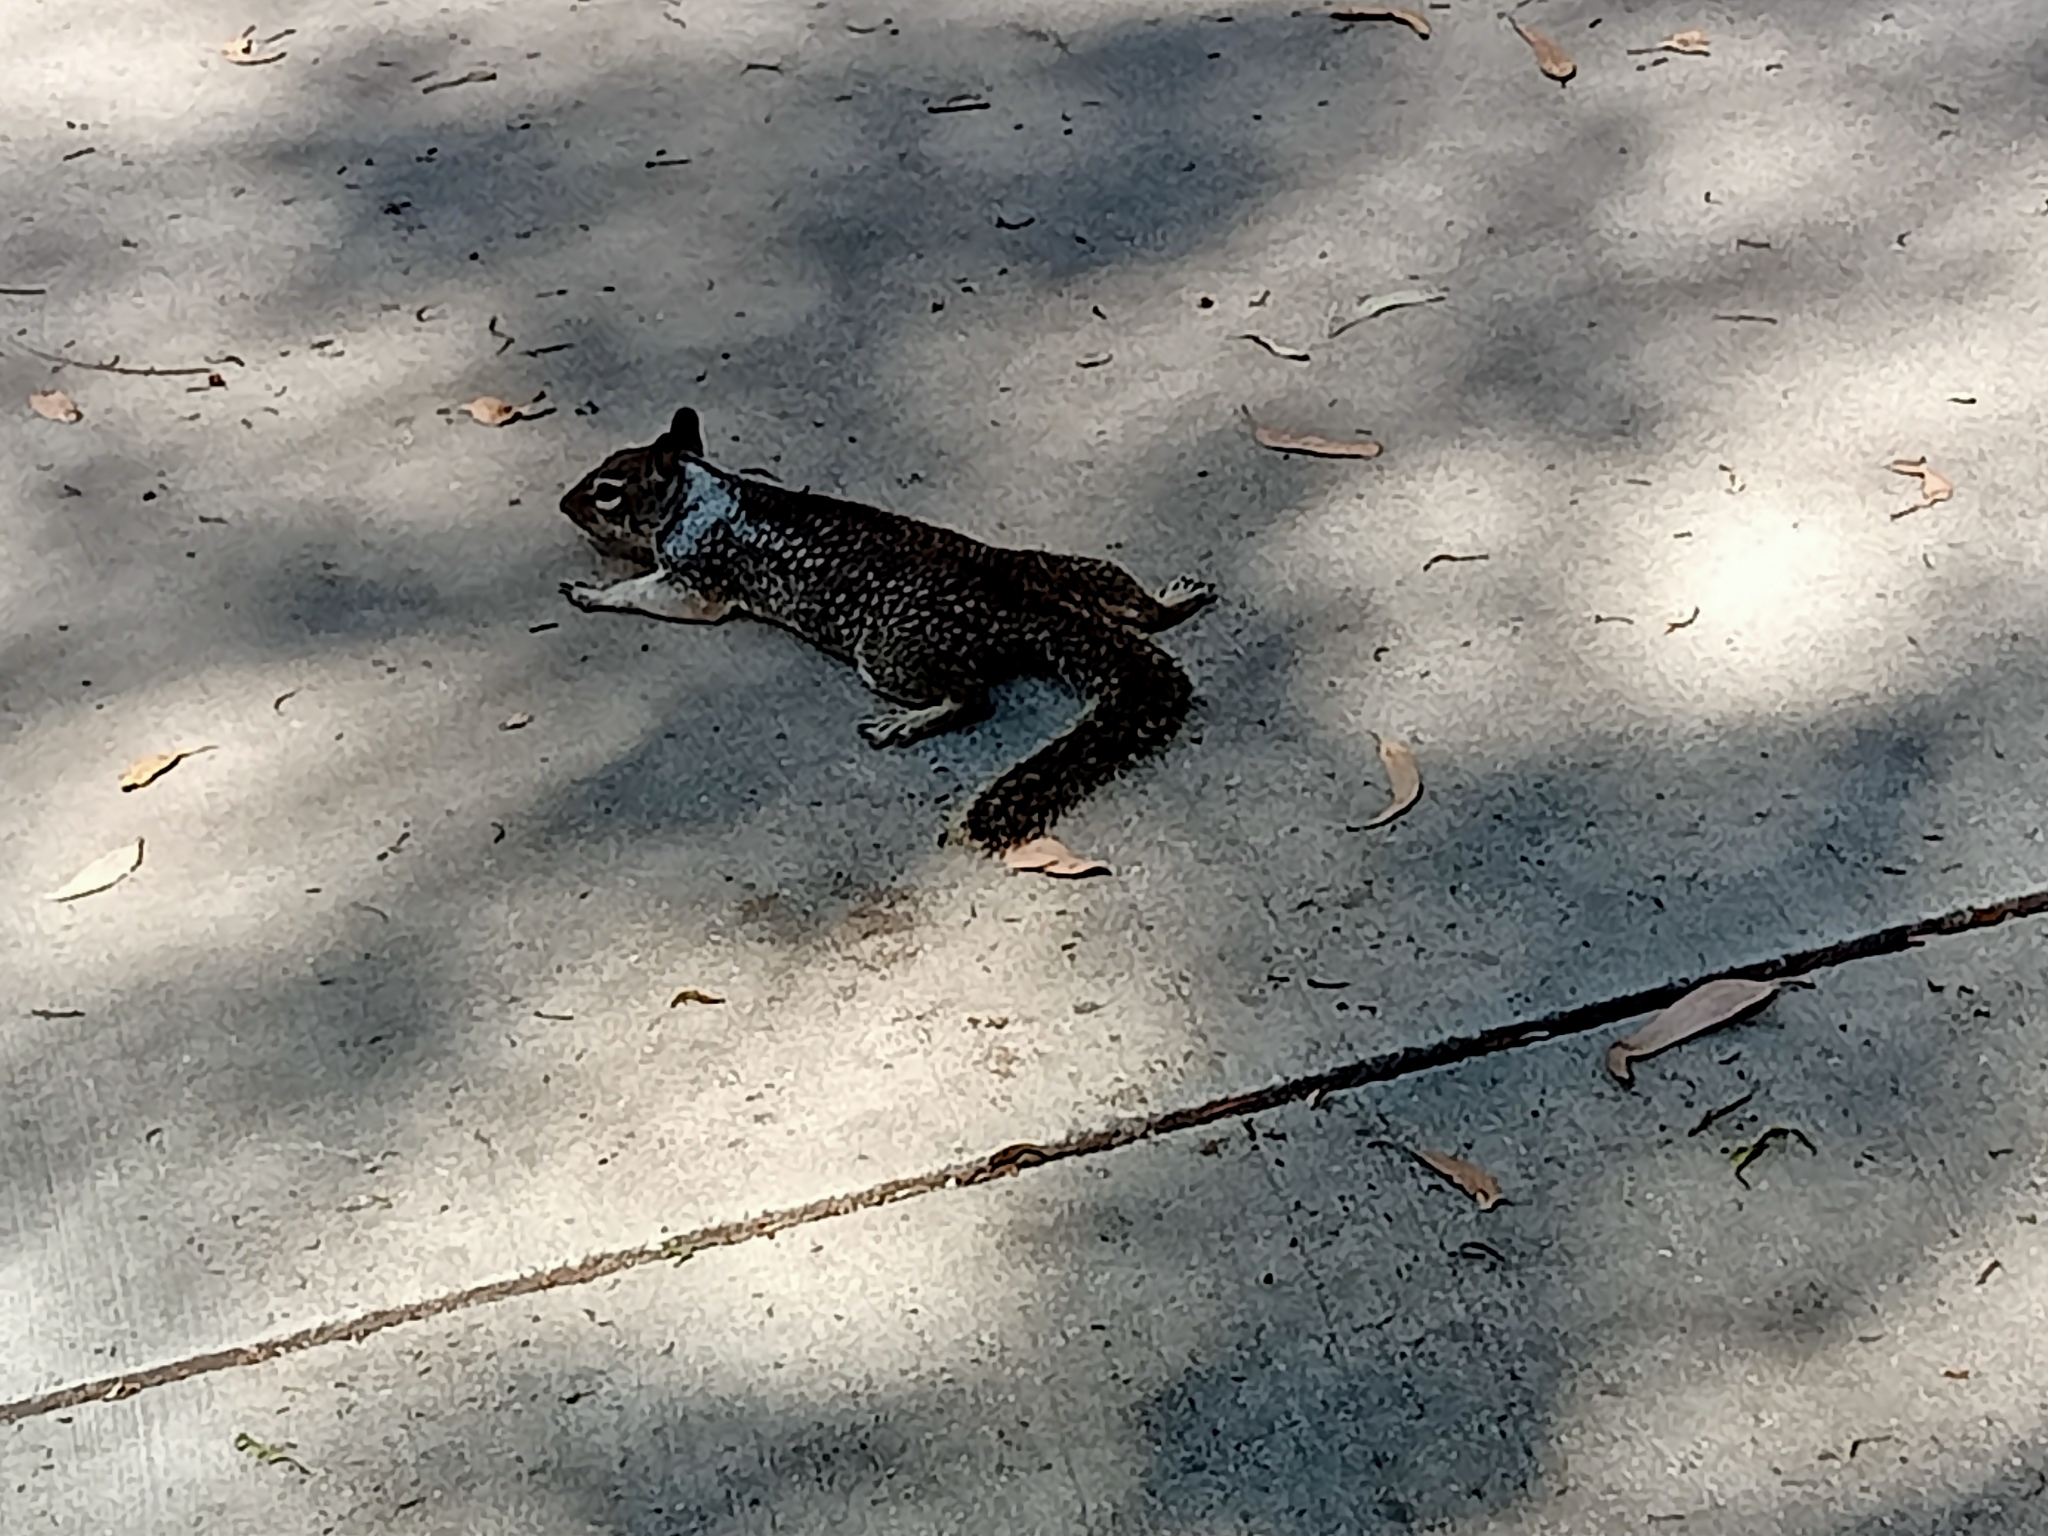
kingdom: Animalia
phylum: Chordata
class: Mammalia
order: Rodentia
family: Sciuridae
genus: Otospermophilus
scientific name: Otospermophilus beecheyi
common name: California ground squirrel
